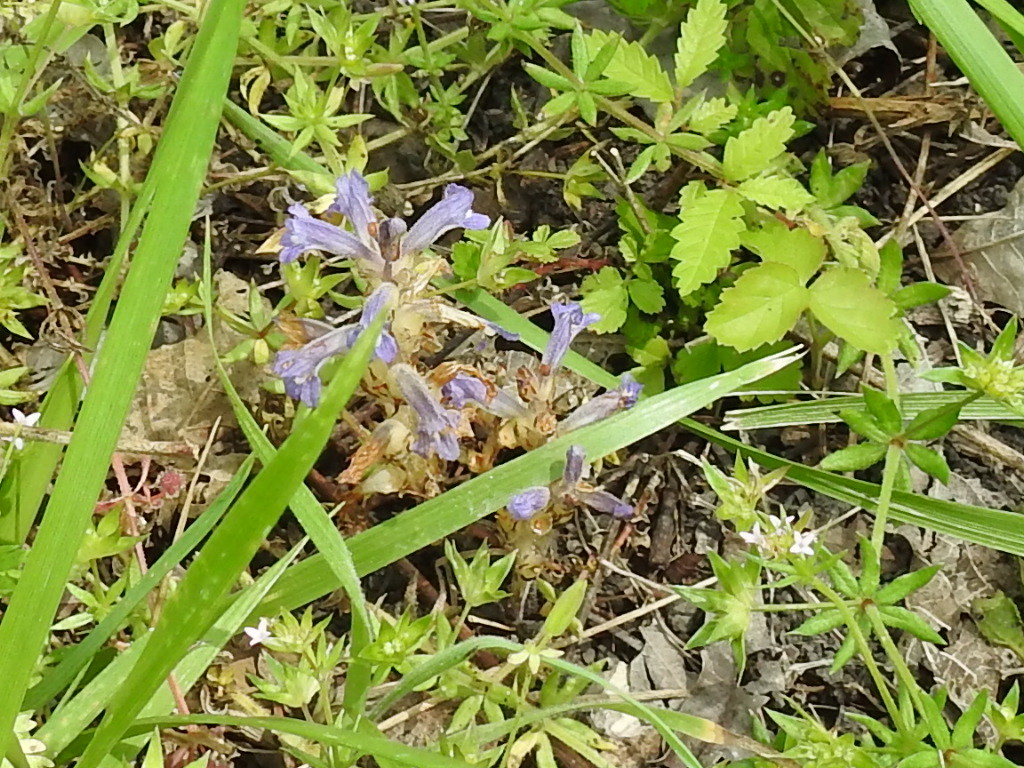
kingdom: Plantae
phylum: Tracheophyta
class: Magnoliopsida
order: Lamiales
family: Orobanchaceae
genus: Phelipanche
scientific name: Phelipanche ramosa
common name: Branched broomrape
